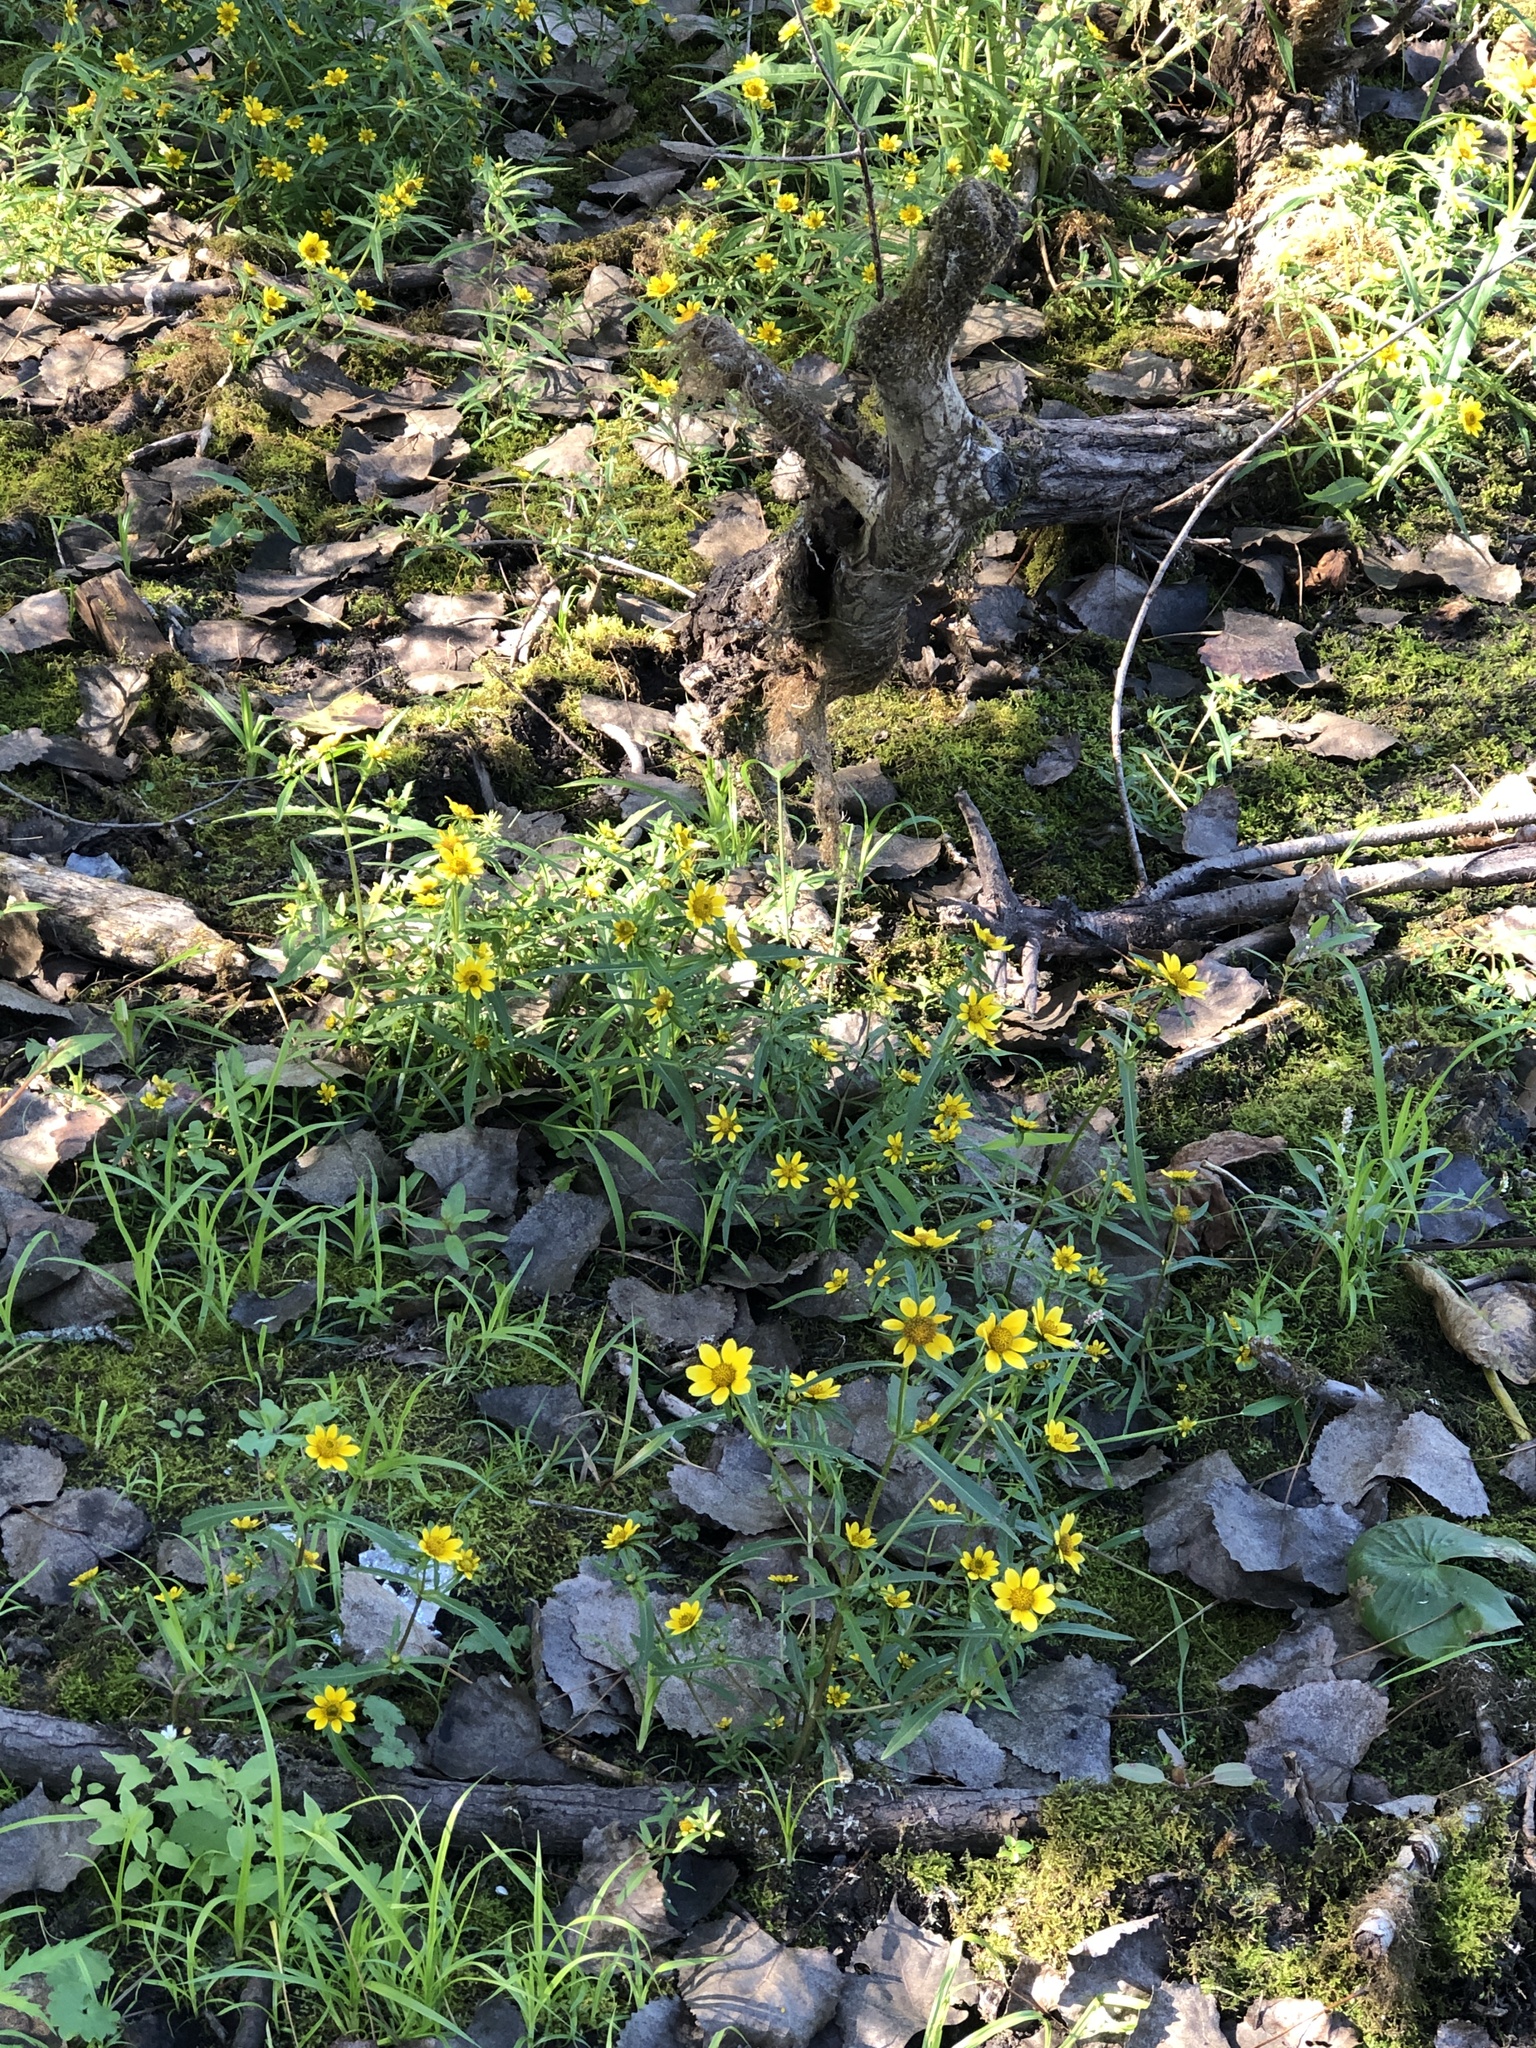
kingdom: Plantae
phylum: Tracheophyta
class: Magnoliopsida
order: Asterales
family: Asteraceae
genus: Bidens
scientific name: Bidens cernua
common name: Nodding bur-marigold
